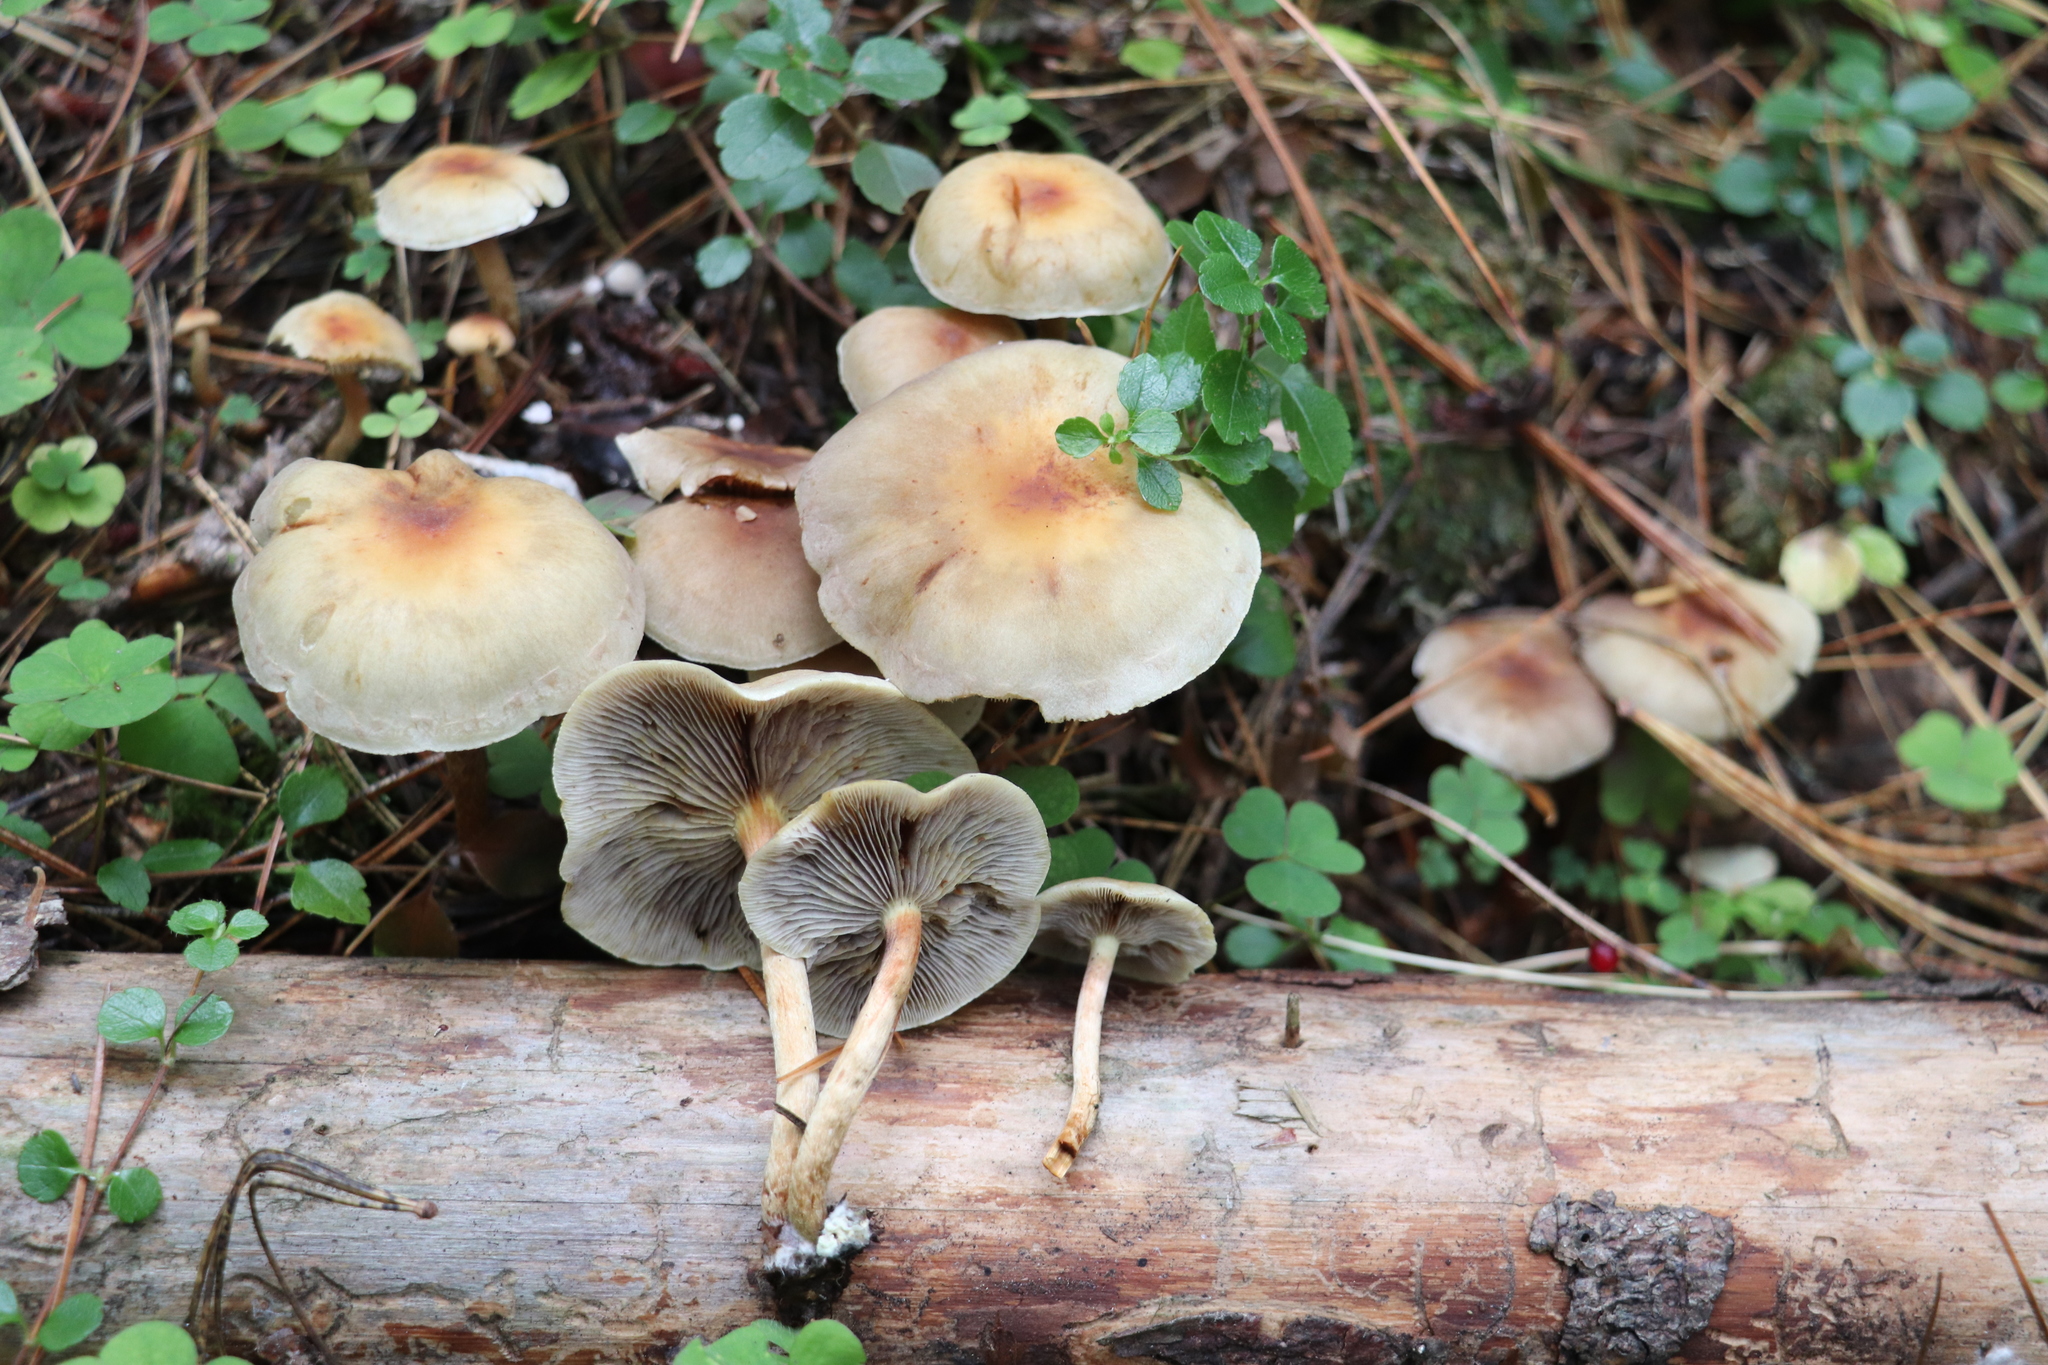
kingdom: Fungi
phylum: Basidiomycota
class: Agaricomycetes
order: Agaricales
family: Strophariaceae
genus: Hypholoma
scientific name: Hypholoma capnoides
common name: Conifer tuft
